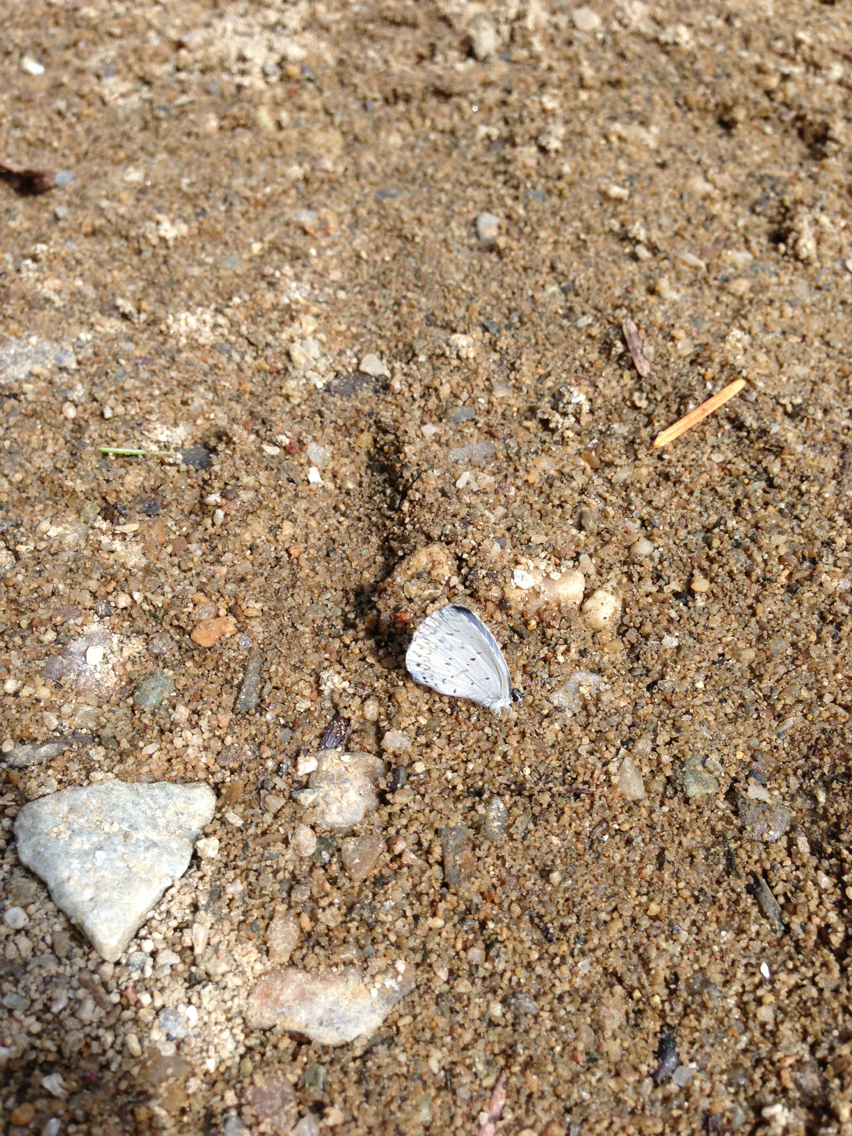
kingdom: Animalia
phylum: Arthropoda
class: Insecta
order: Lepidoptera
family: Lycaenidae
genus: Cyaniris
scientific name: Cyaniris neglecta
